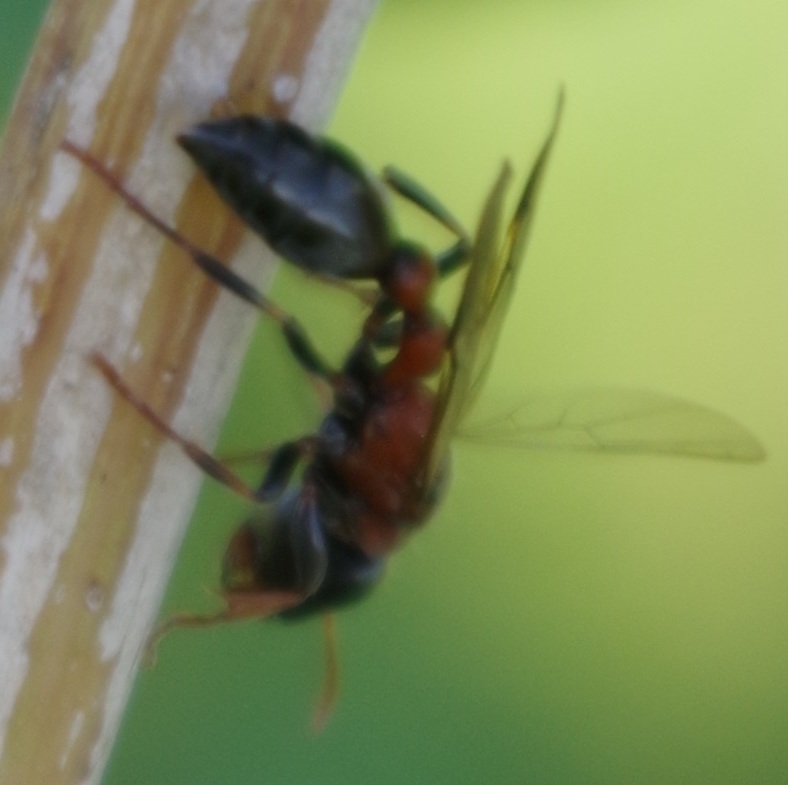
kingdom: Animalia
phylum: Arthropoda
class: Insecta
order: Hymenoptera
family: Formicidae
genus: Tetraponera
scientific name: Tetraponera rufonigra
